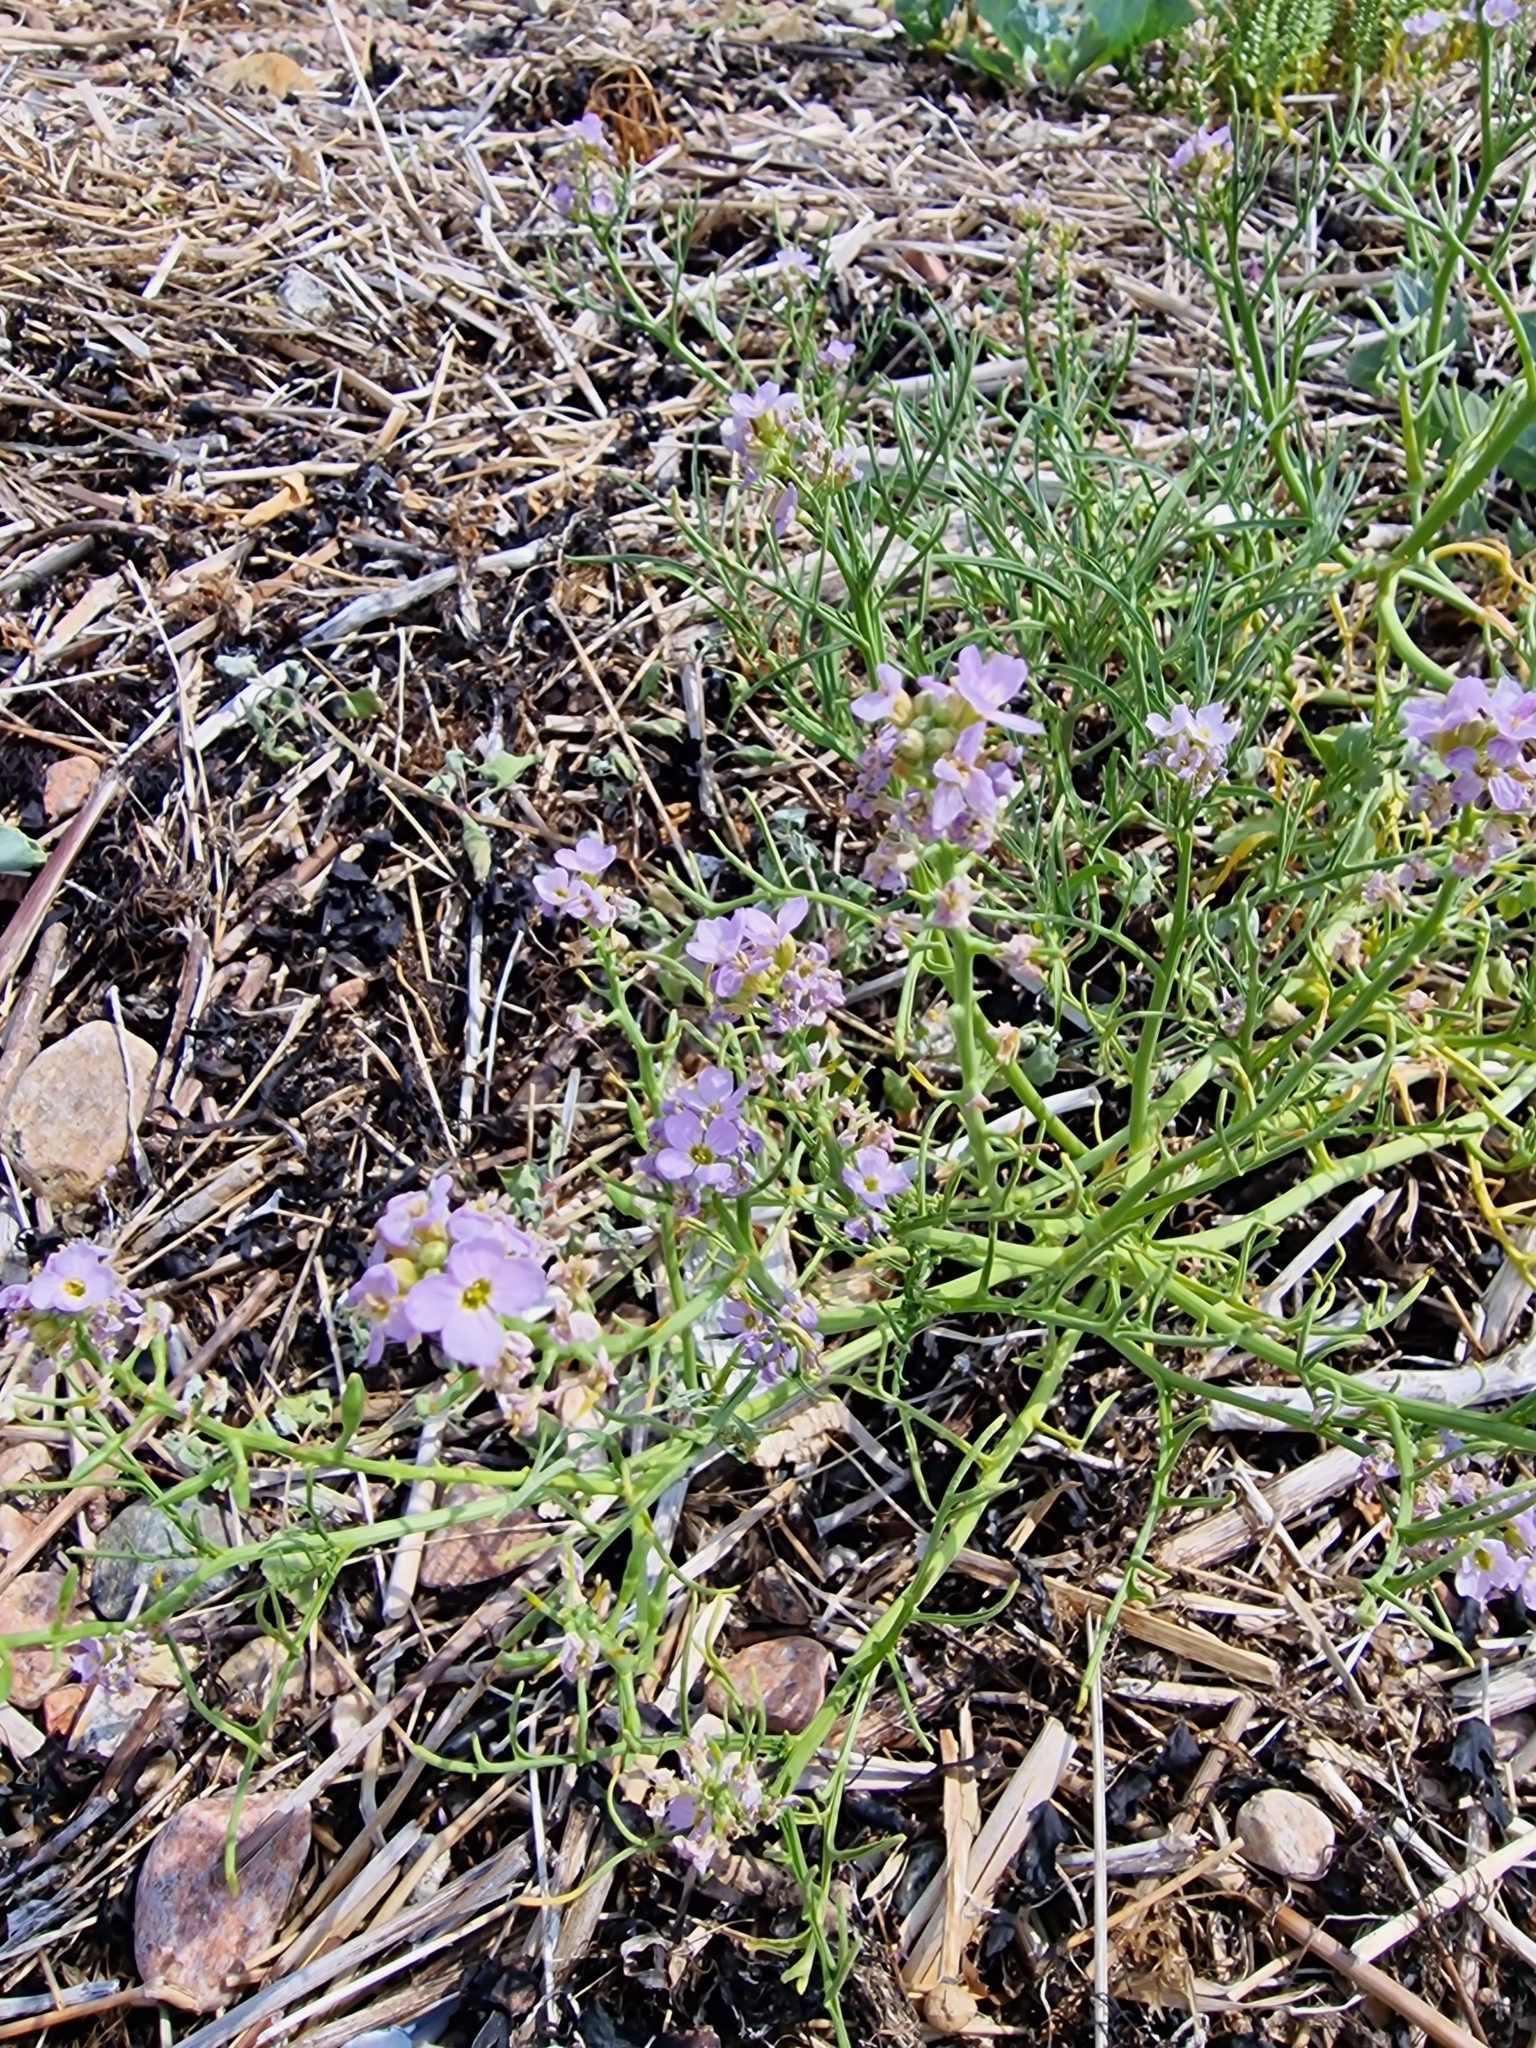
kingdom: Plantae
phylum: Tracheophyta
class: Magnoliopsida
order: Brassicales
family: Brassicaceae
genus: Cakile
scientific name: Cakile maritima
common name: Sea rocket
